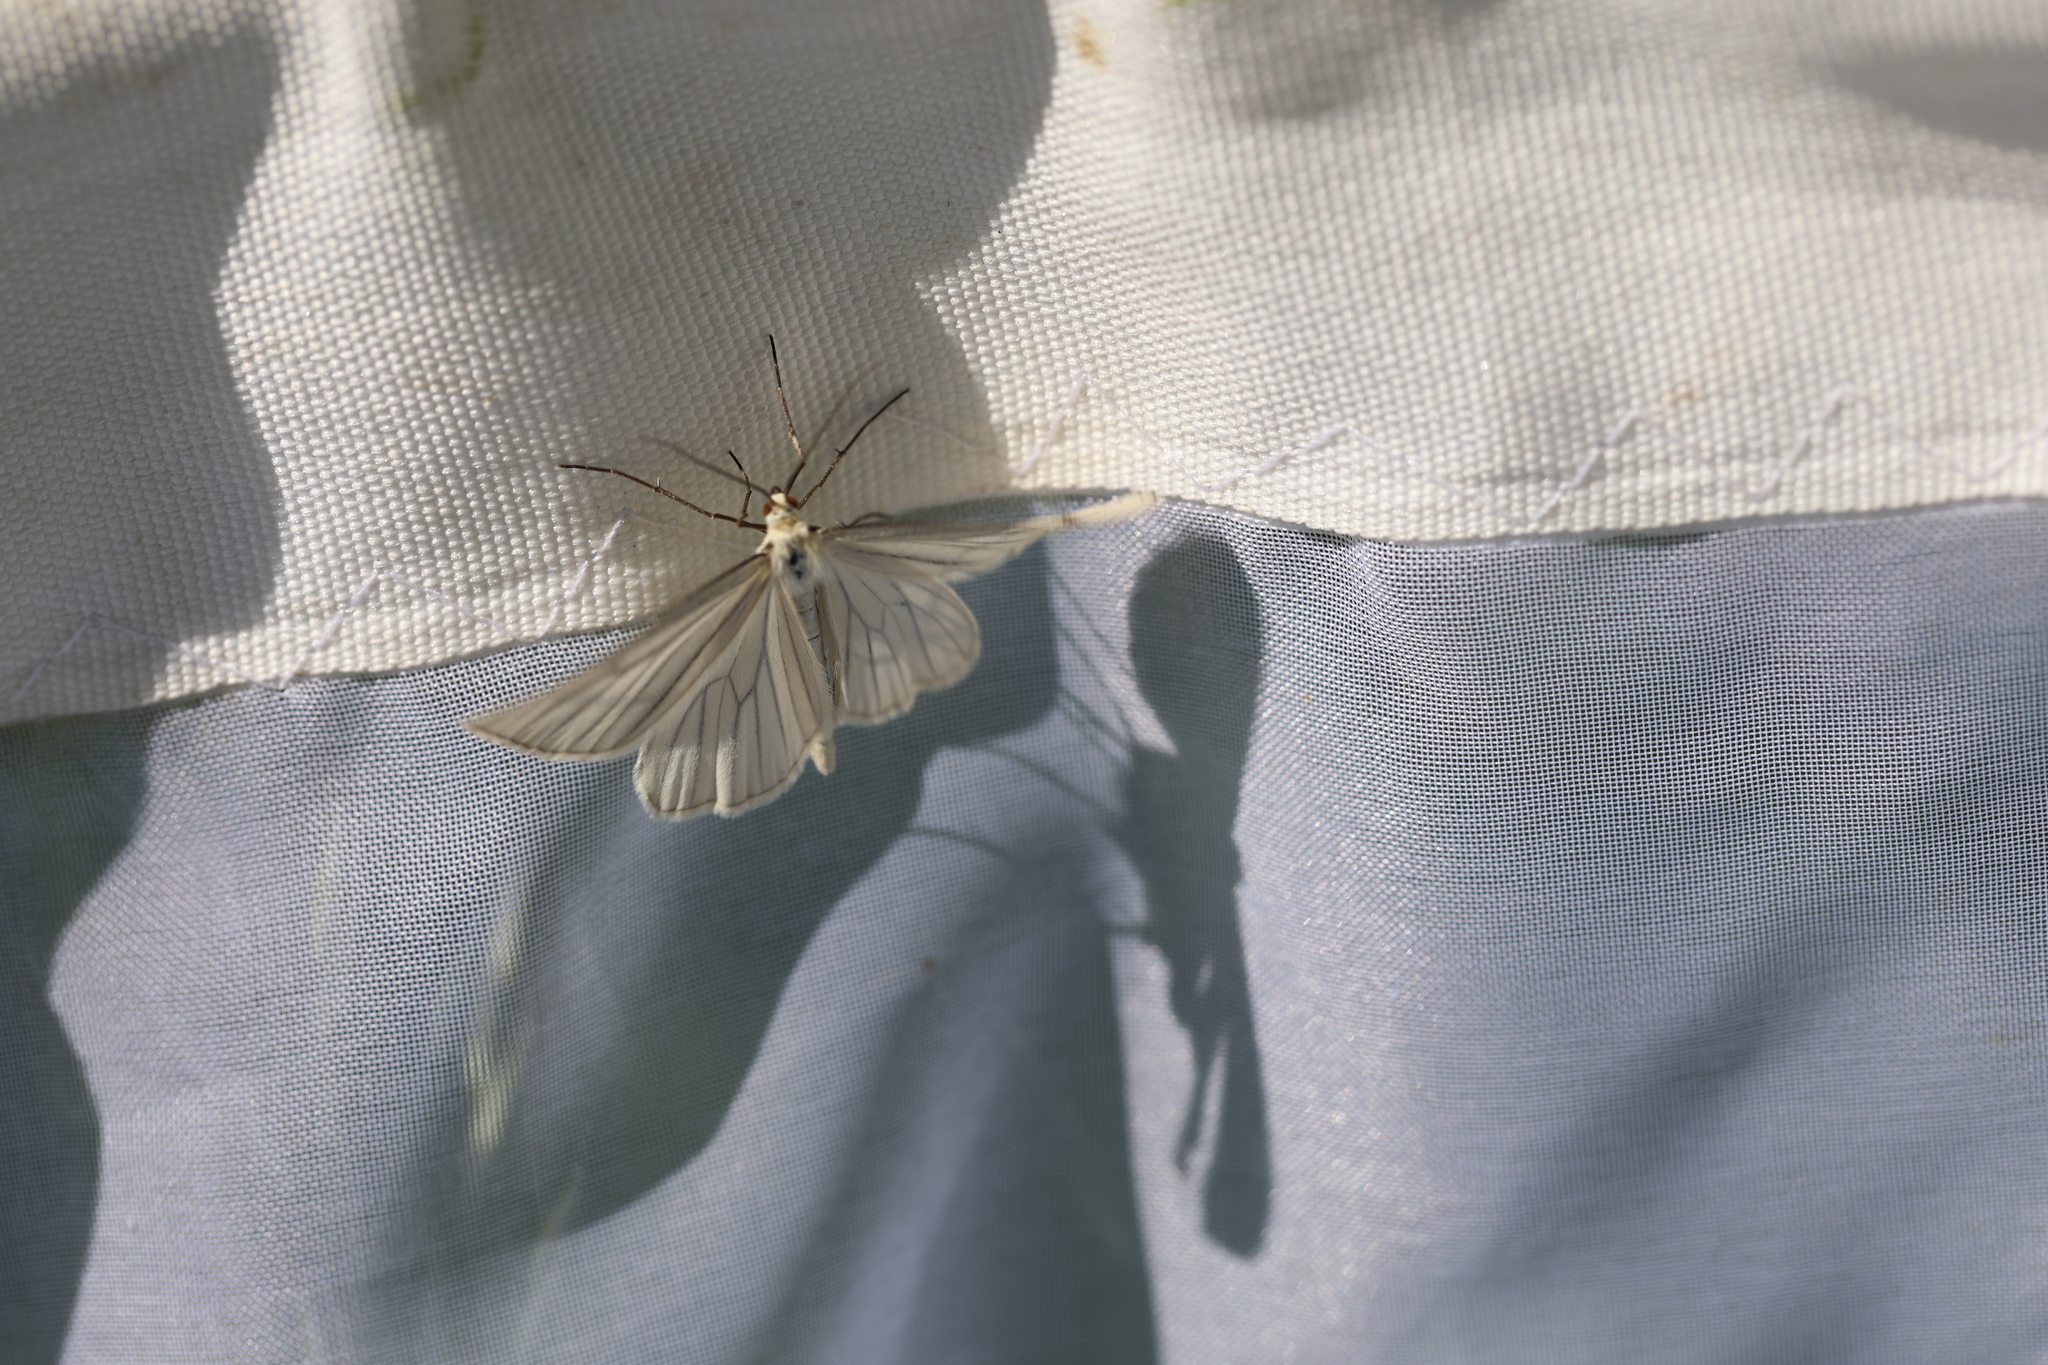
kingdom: Animalia
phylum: Arthropoda
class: Insecta
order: Lepidoptera
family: Geometridae
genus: Siona
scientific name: Siona lineata
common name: Black-veined moth
